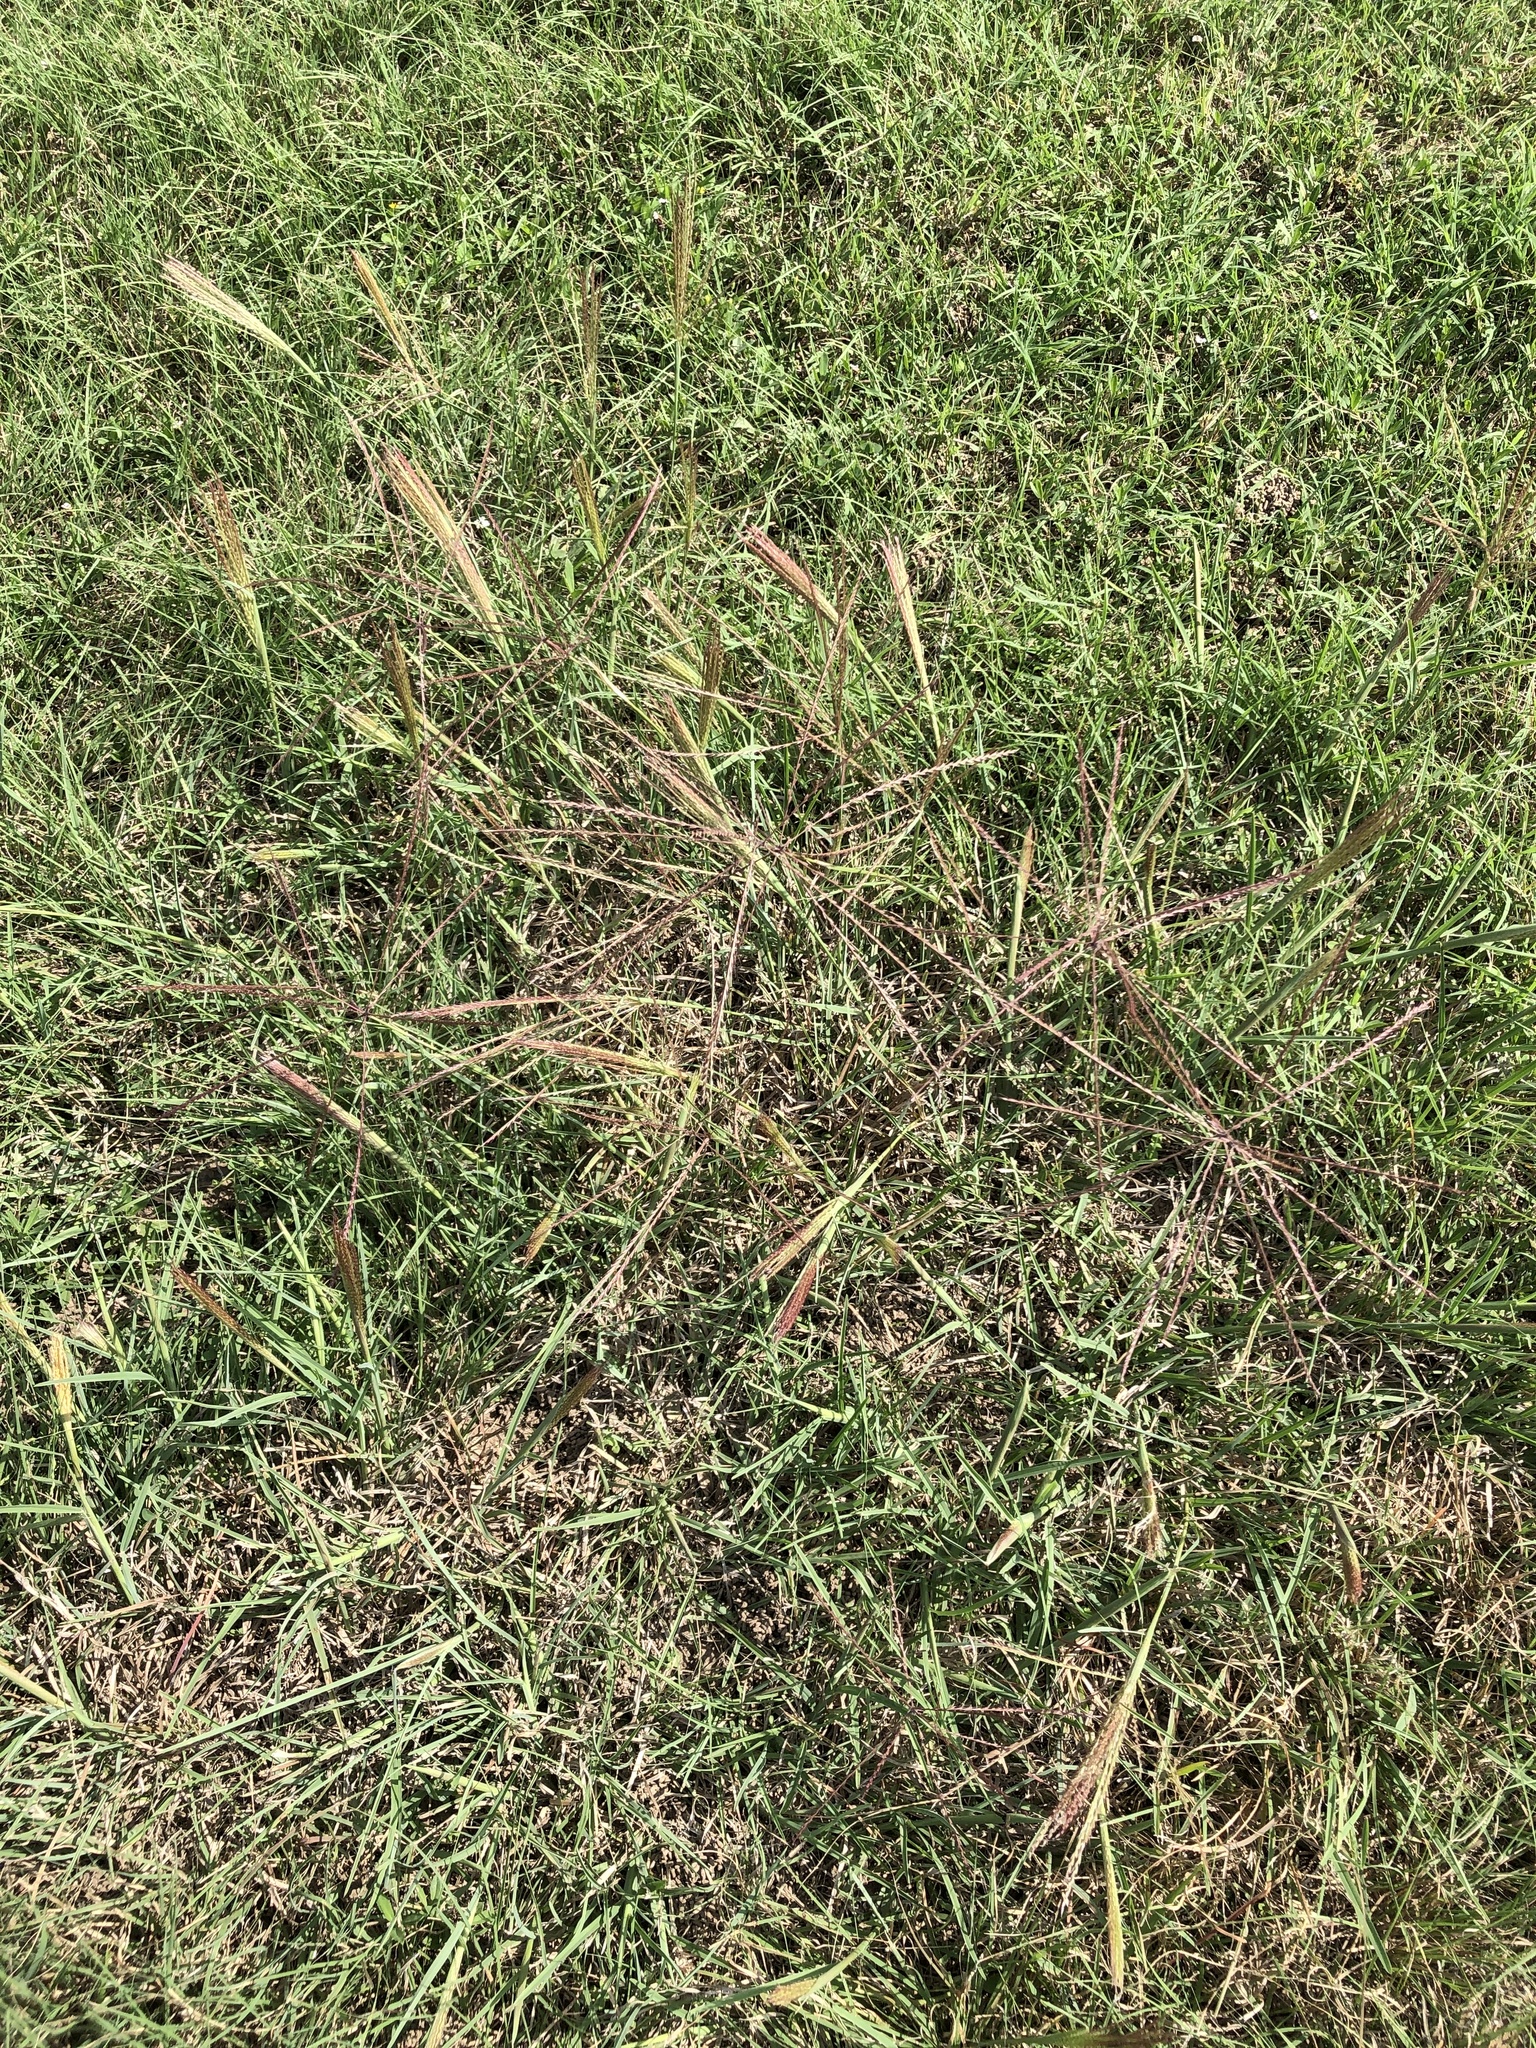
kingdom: Plantae
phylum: Tracheophyta
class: Liliopsida
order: Poales
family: Poaceae
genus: Chloris
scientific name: Chloris verticillata
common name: Tumble windmill grass
